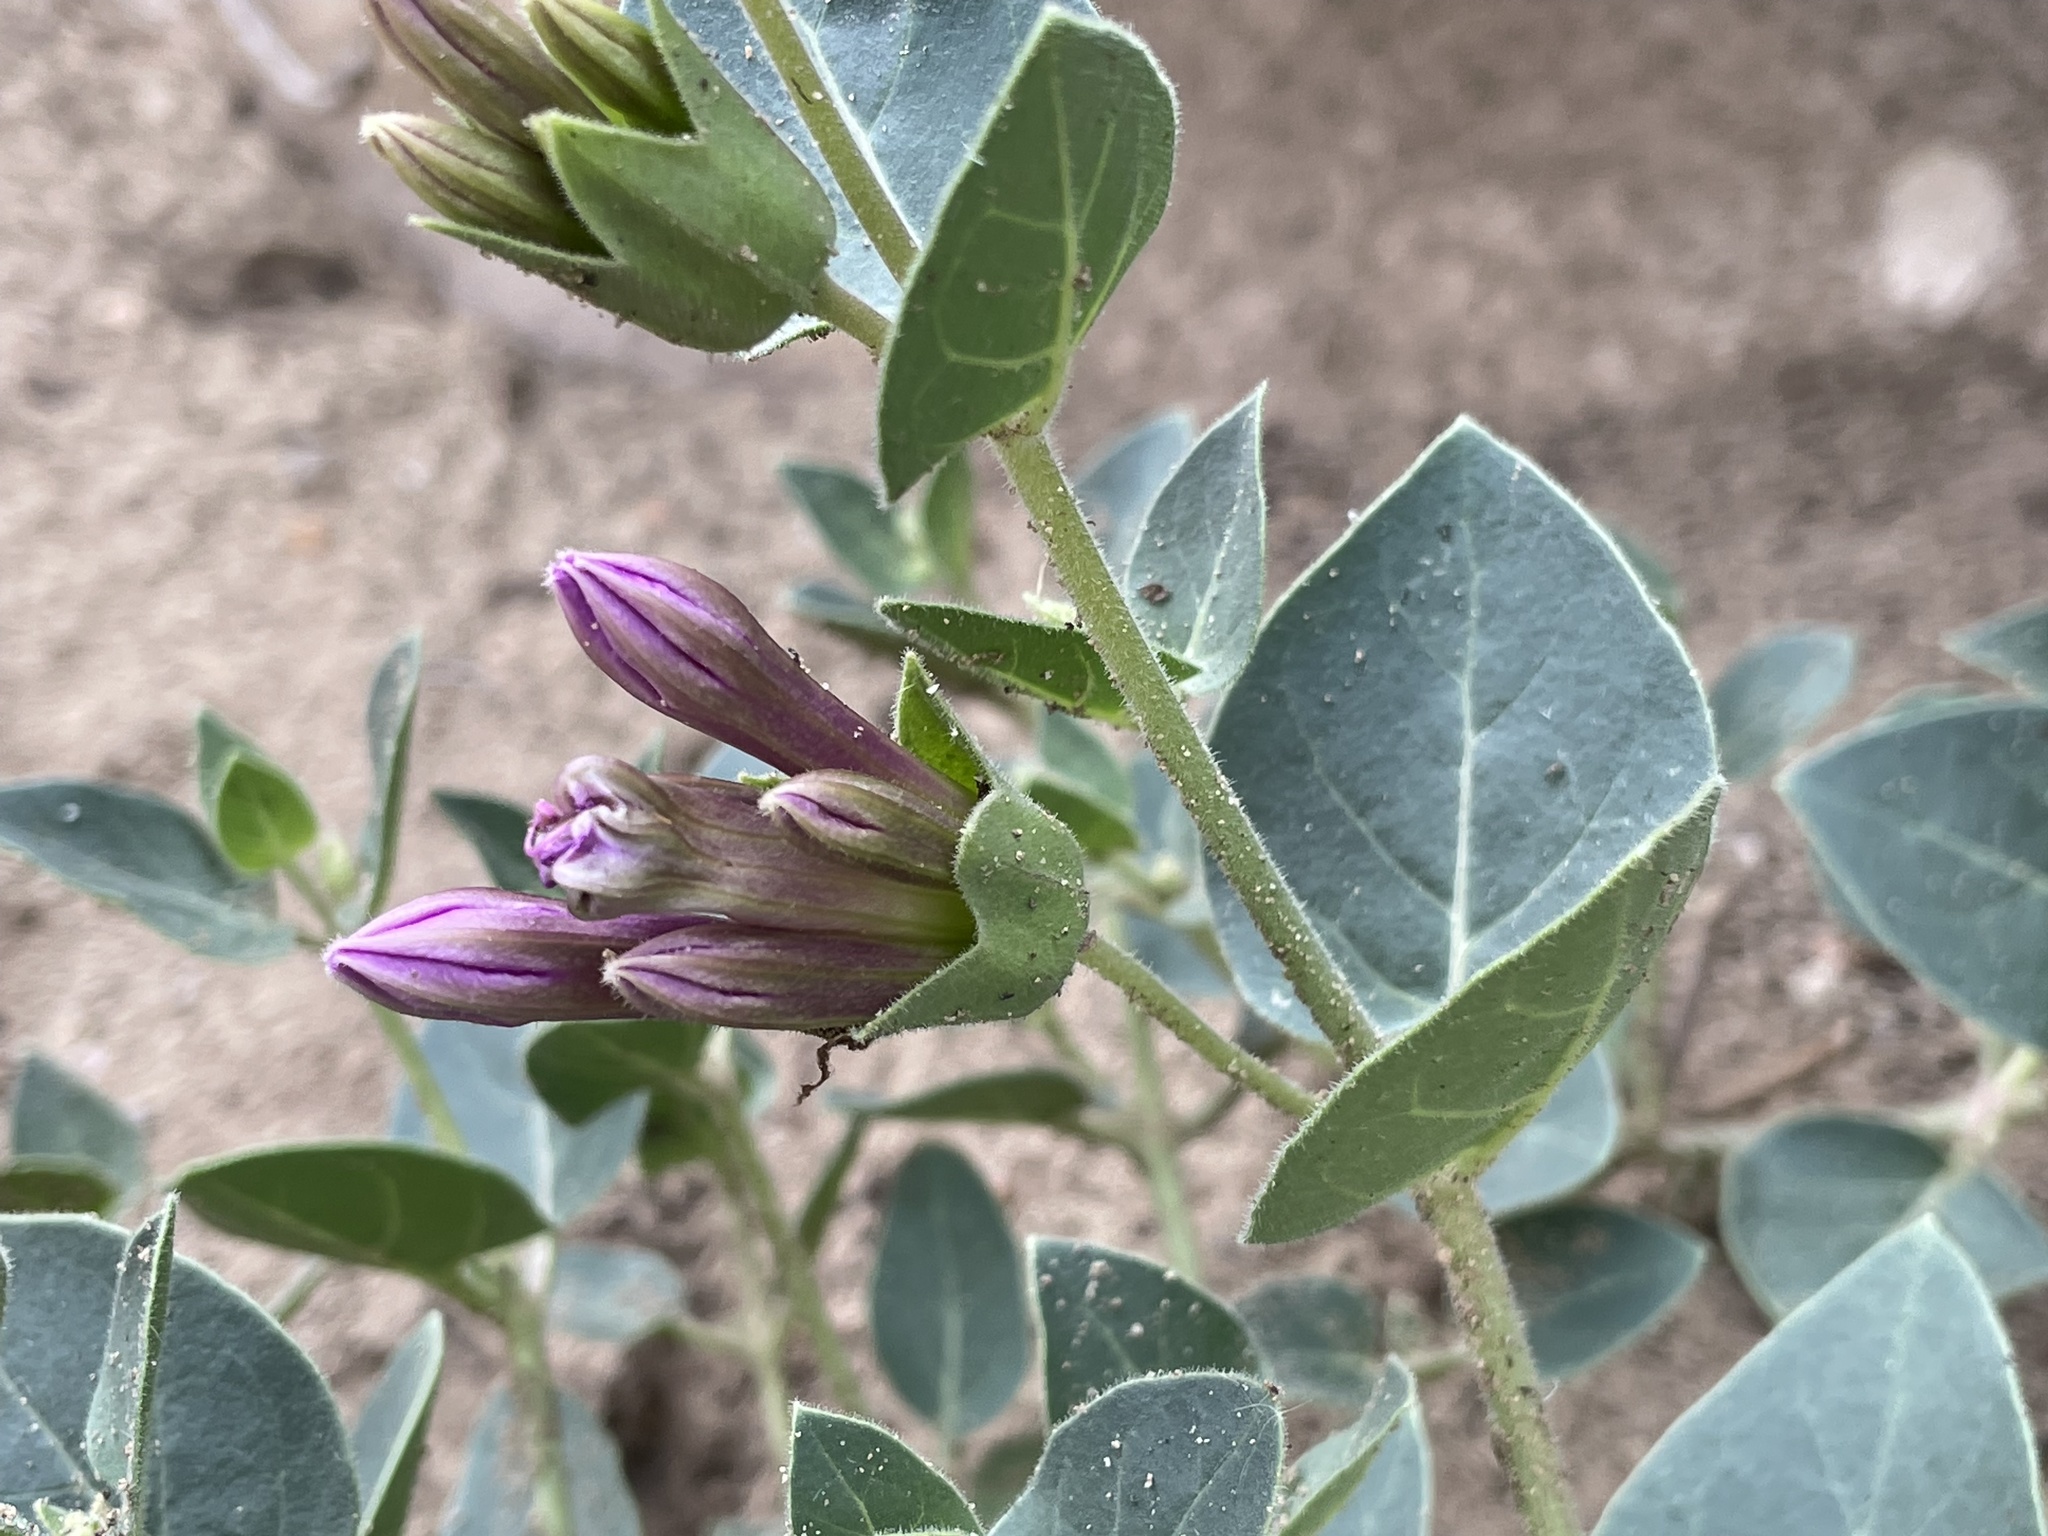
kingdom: Plantae
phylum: Tracheophyta
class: Magnoliopsida
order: Caryophyllales
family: Nyctaginaceae
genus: Mirabilis
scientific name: Mirabilis multiflora
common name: Froebel's four-o'clock
